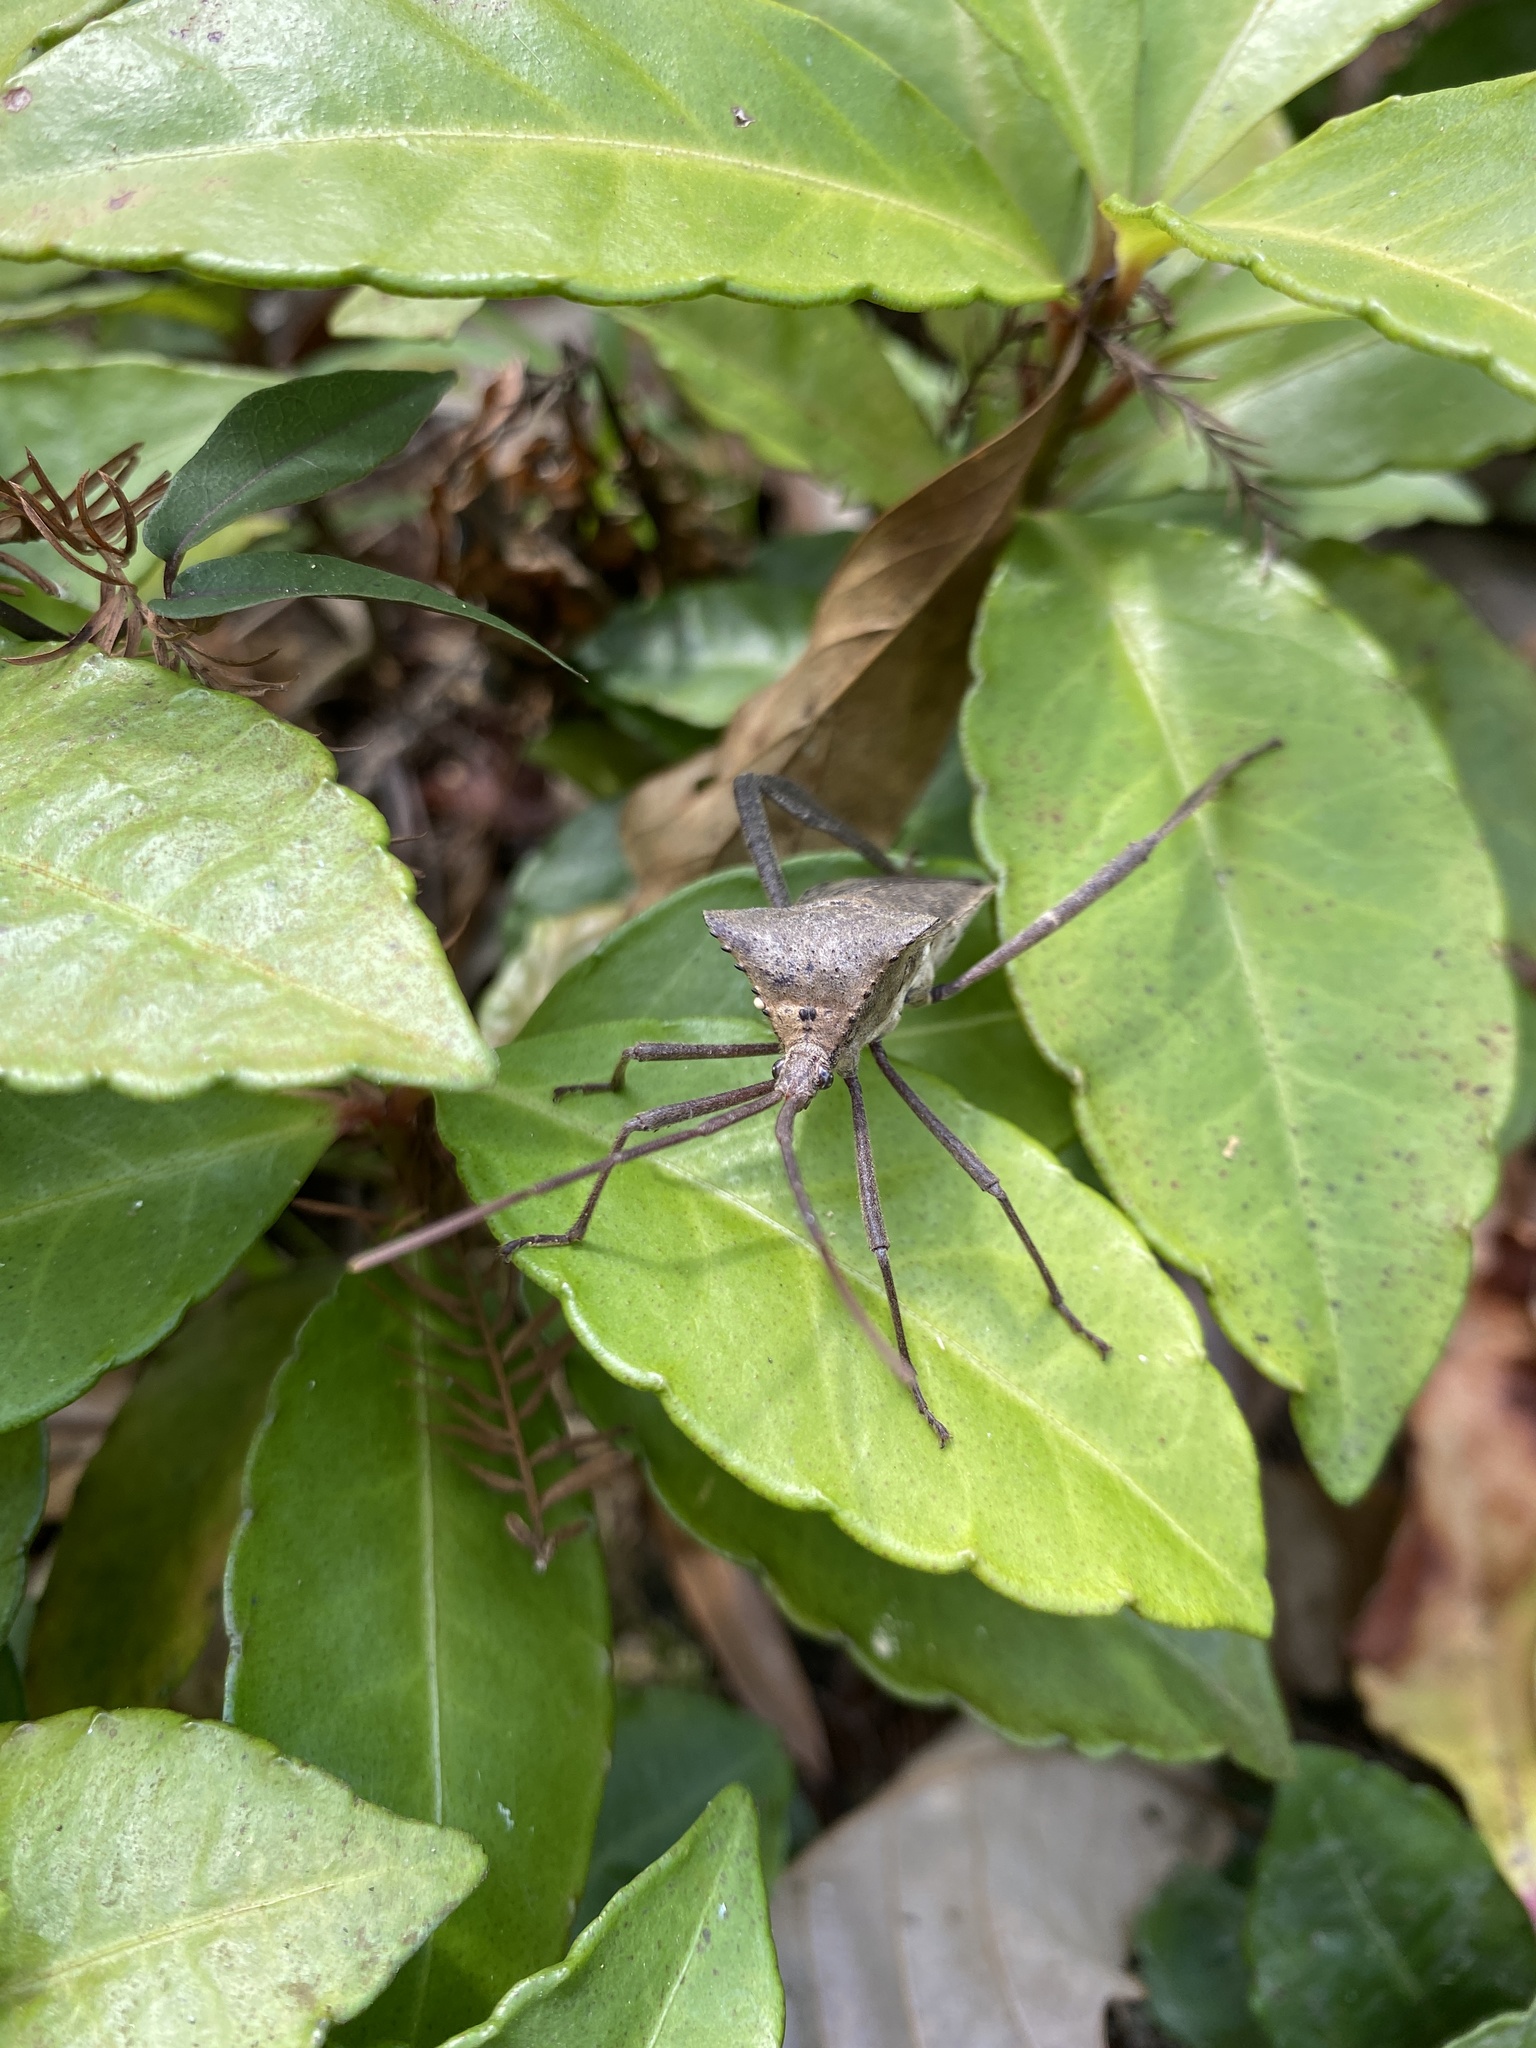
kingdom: Animalia
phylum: Arthropoda
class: Insecta
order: Hemiptera
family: Coreidae
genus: Acanthocephala
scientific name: Acanthocephala declivis
